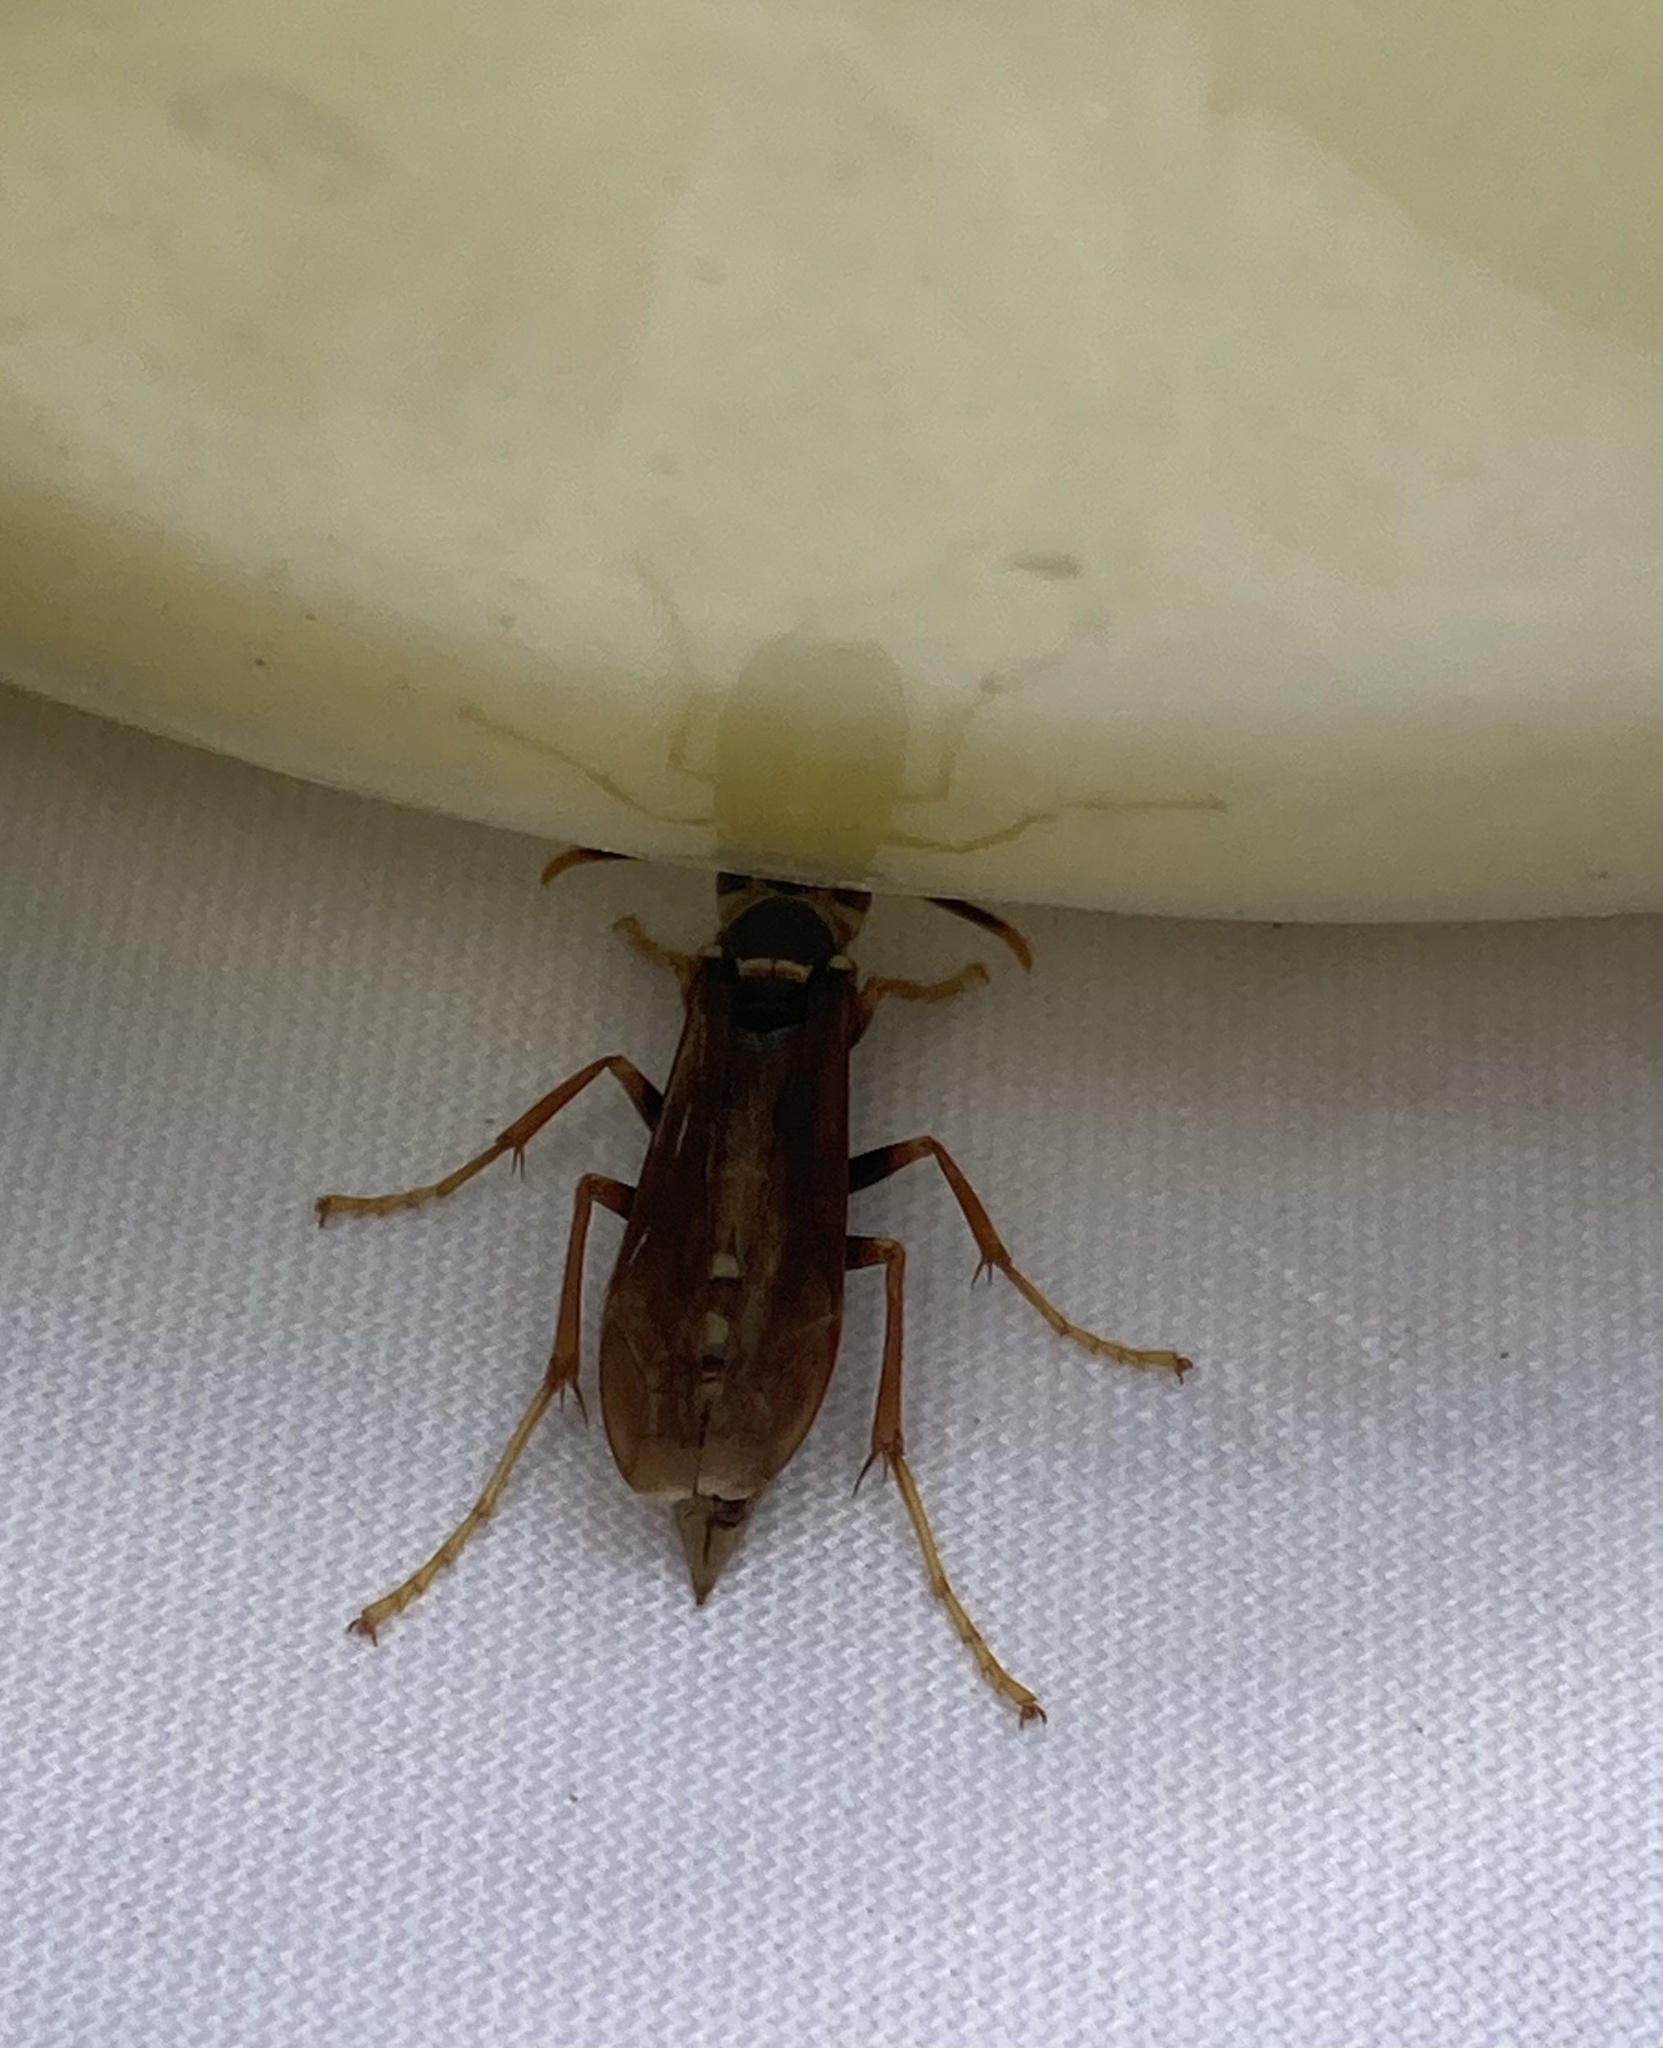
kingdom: Animalia
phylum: Arthropoda
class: Insecta
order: Hymenoptera
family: Eumenidae
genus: Polistes
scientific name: Polistes buyssoni
